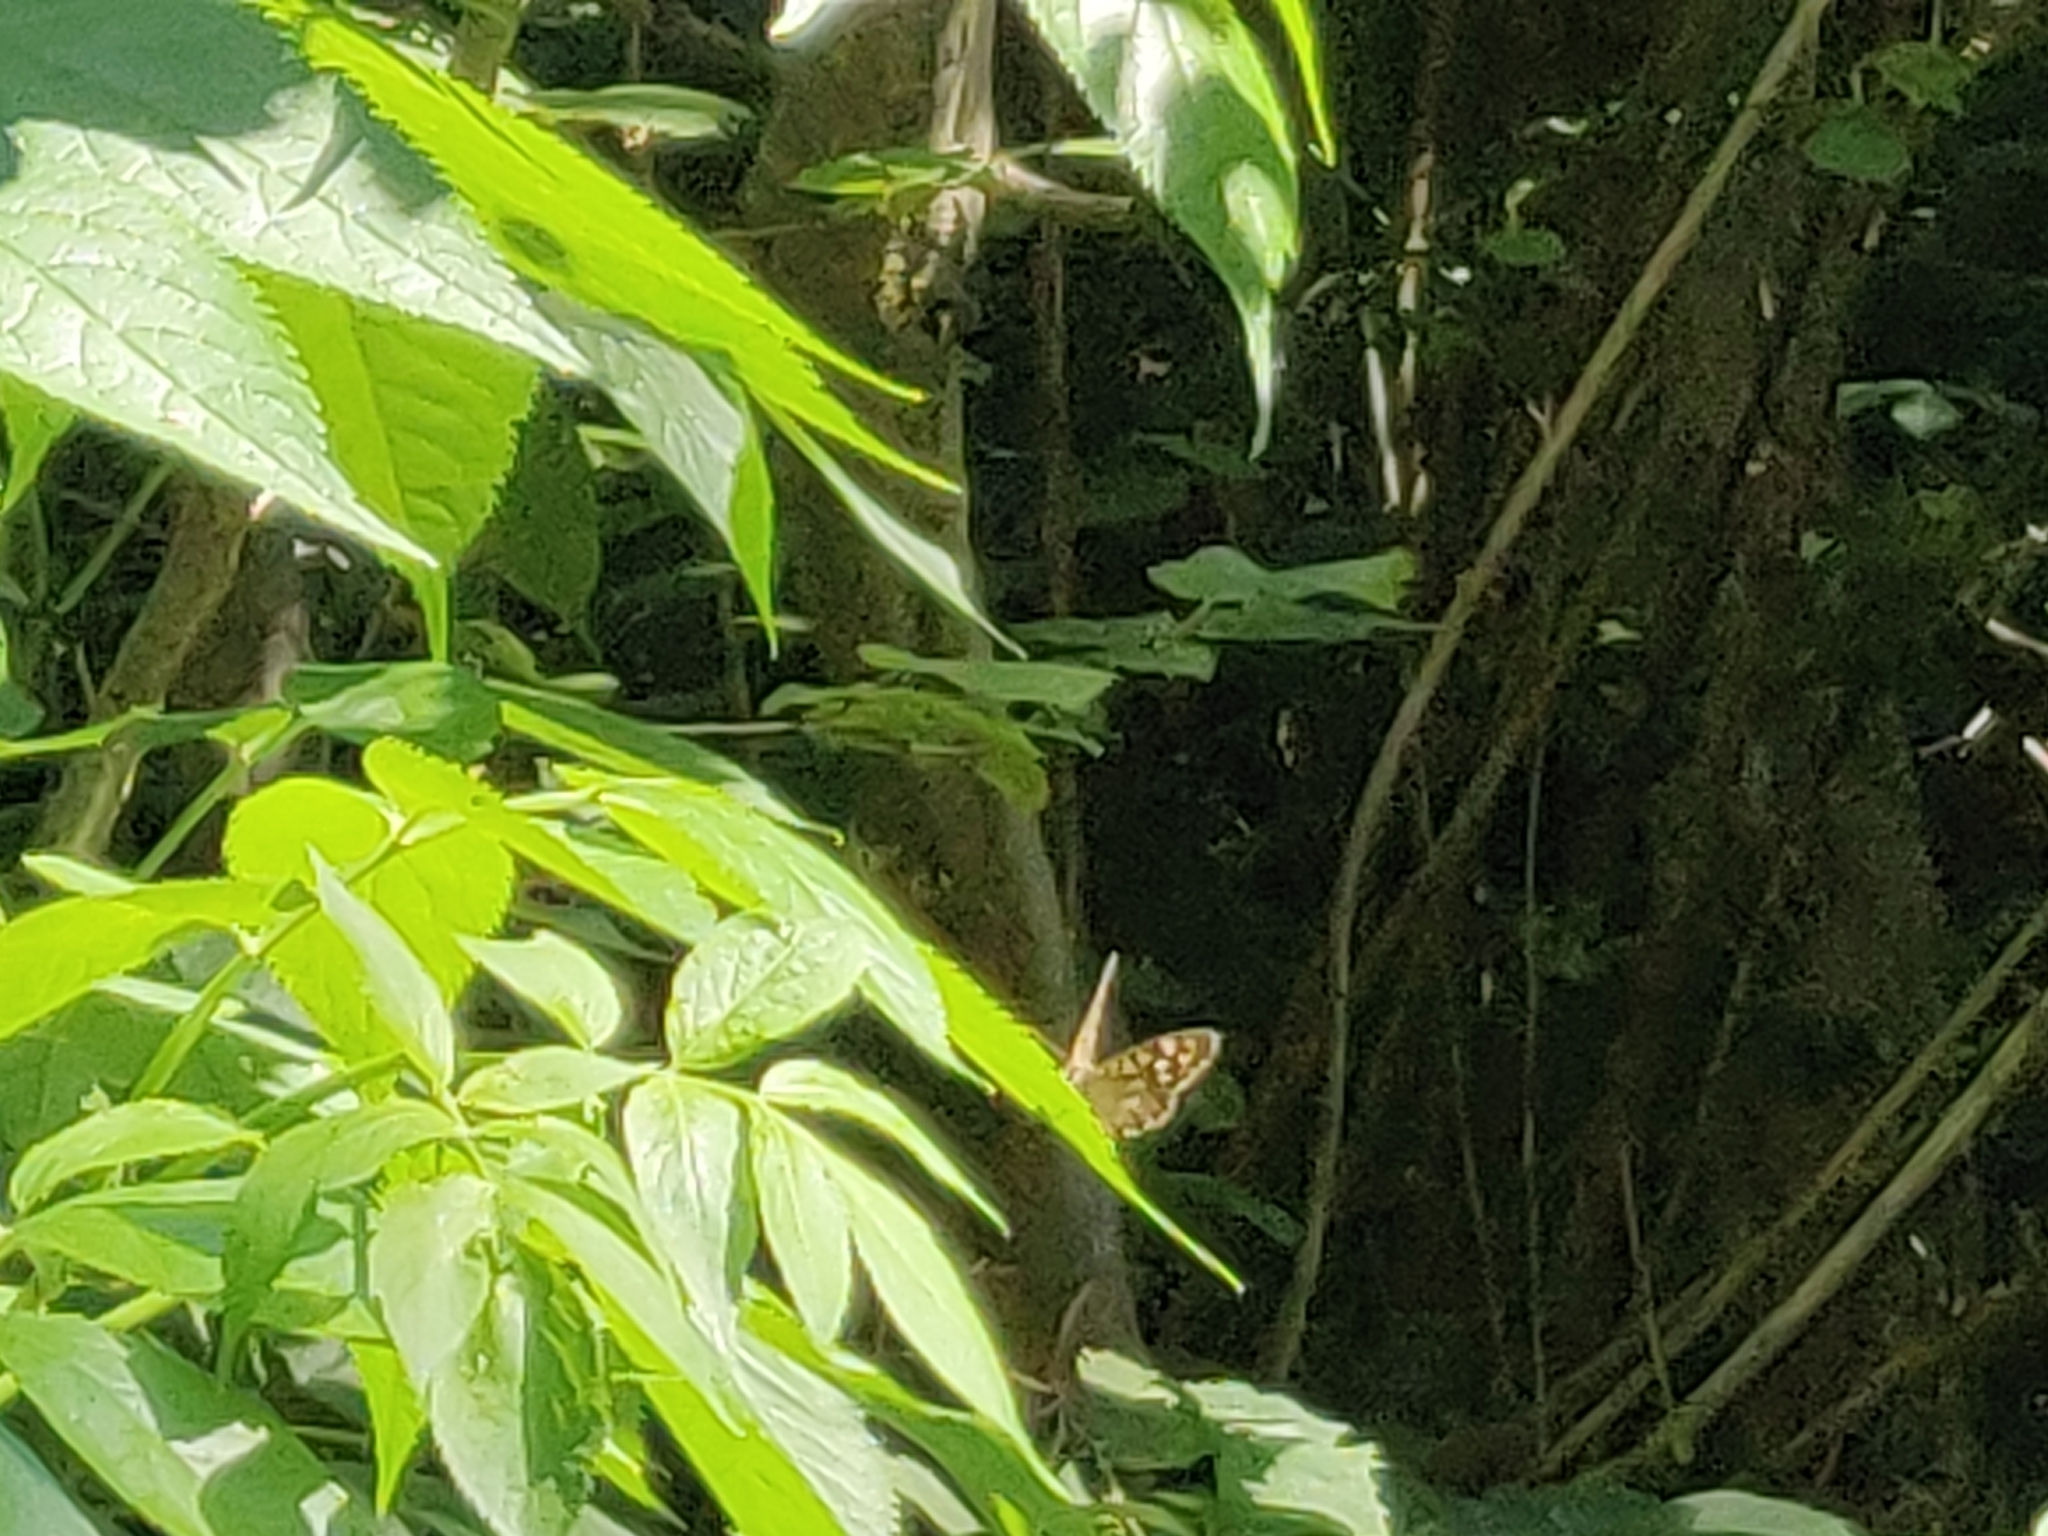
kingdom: Animalia
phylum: Arthropoda
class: Insecta
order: Lepidoptera
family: Nymphalidae
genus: Pararge
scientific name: Pararge aegeria
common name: Speckled wood
